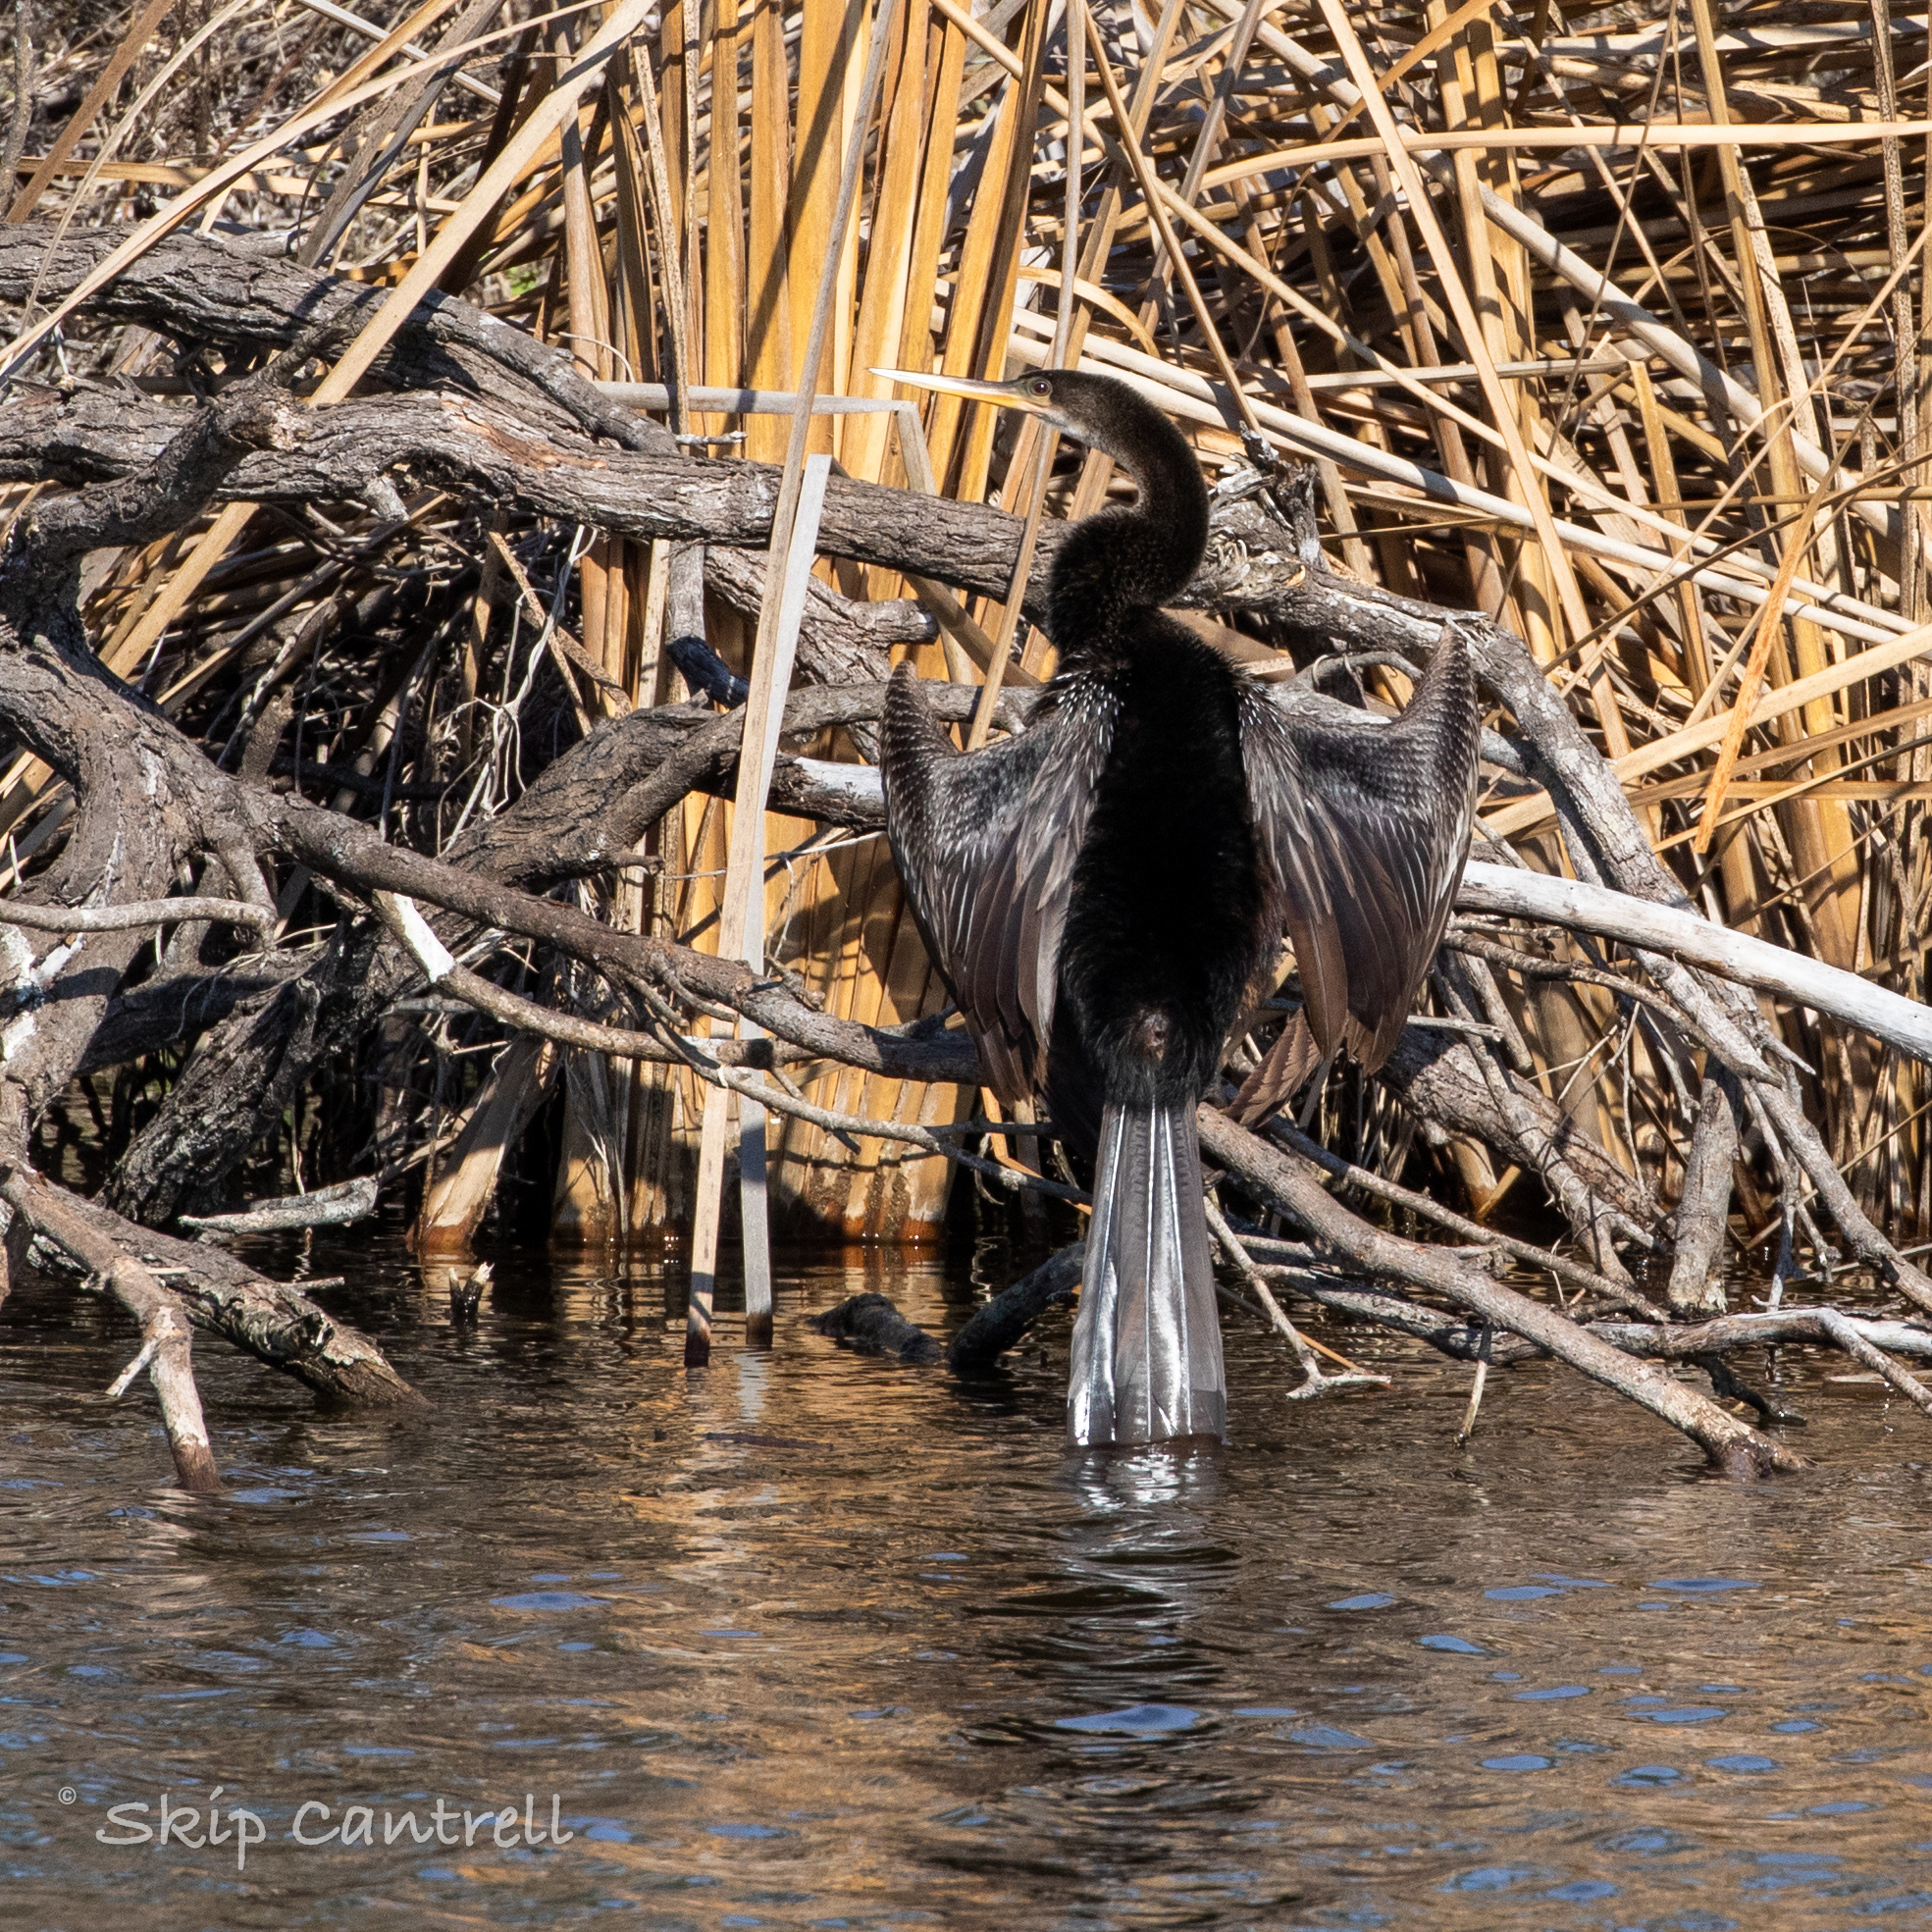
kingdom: Animalia
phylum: Chordata
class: Aves
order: Suliformes
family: Anhingidae
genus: Anhinga
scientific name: Anhinga anhinga
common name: Anhinga
